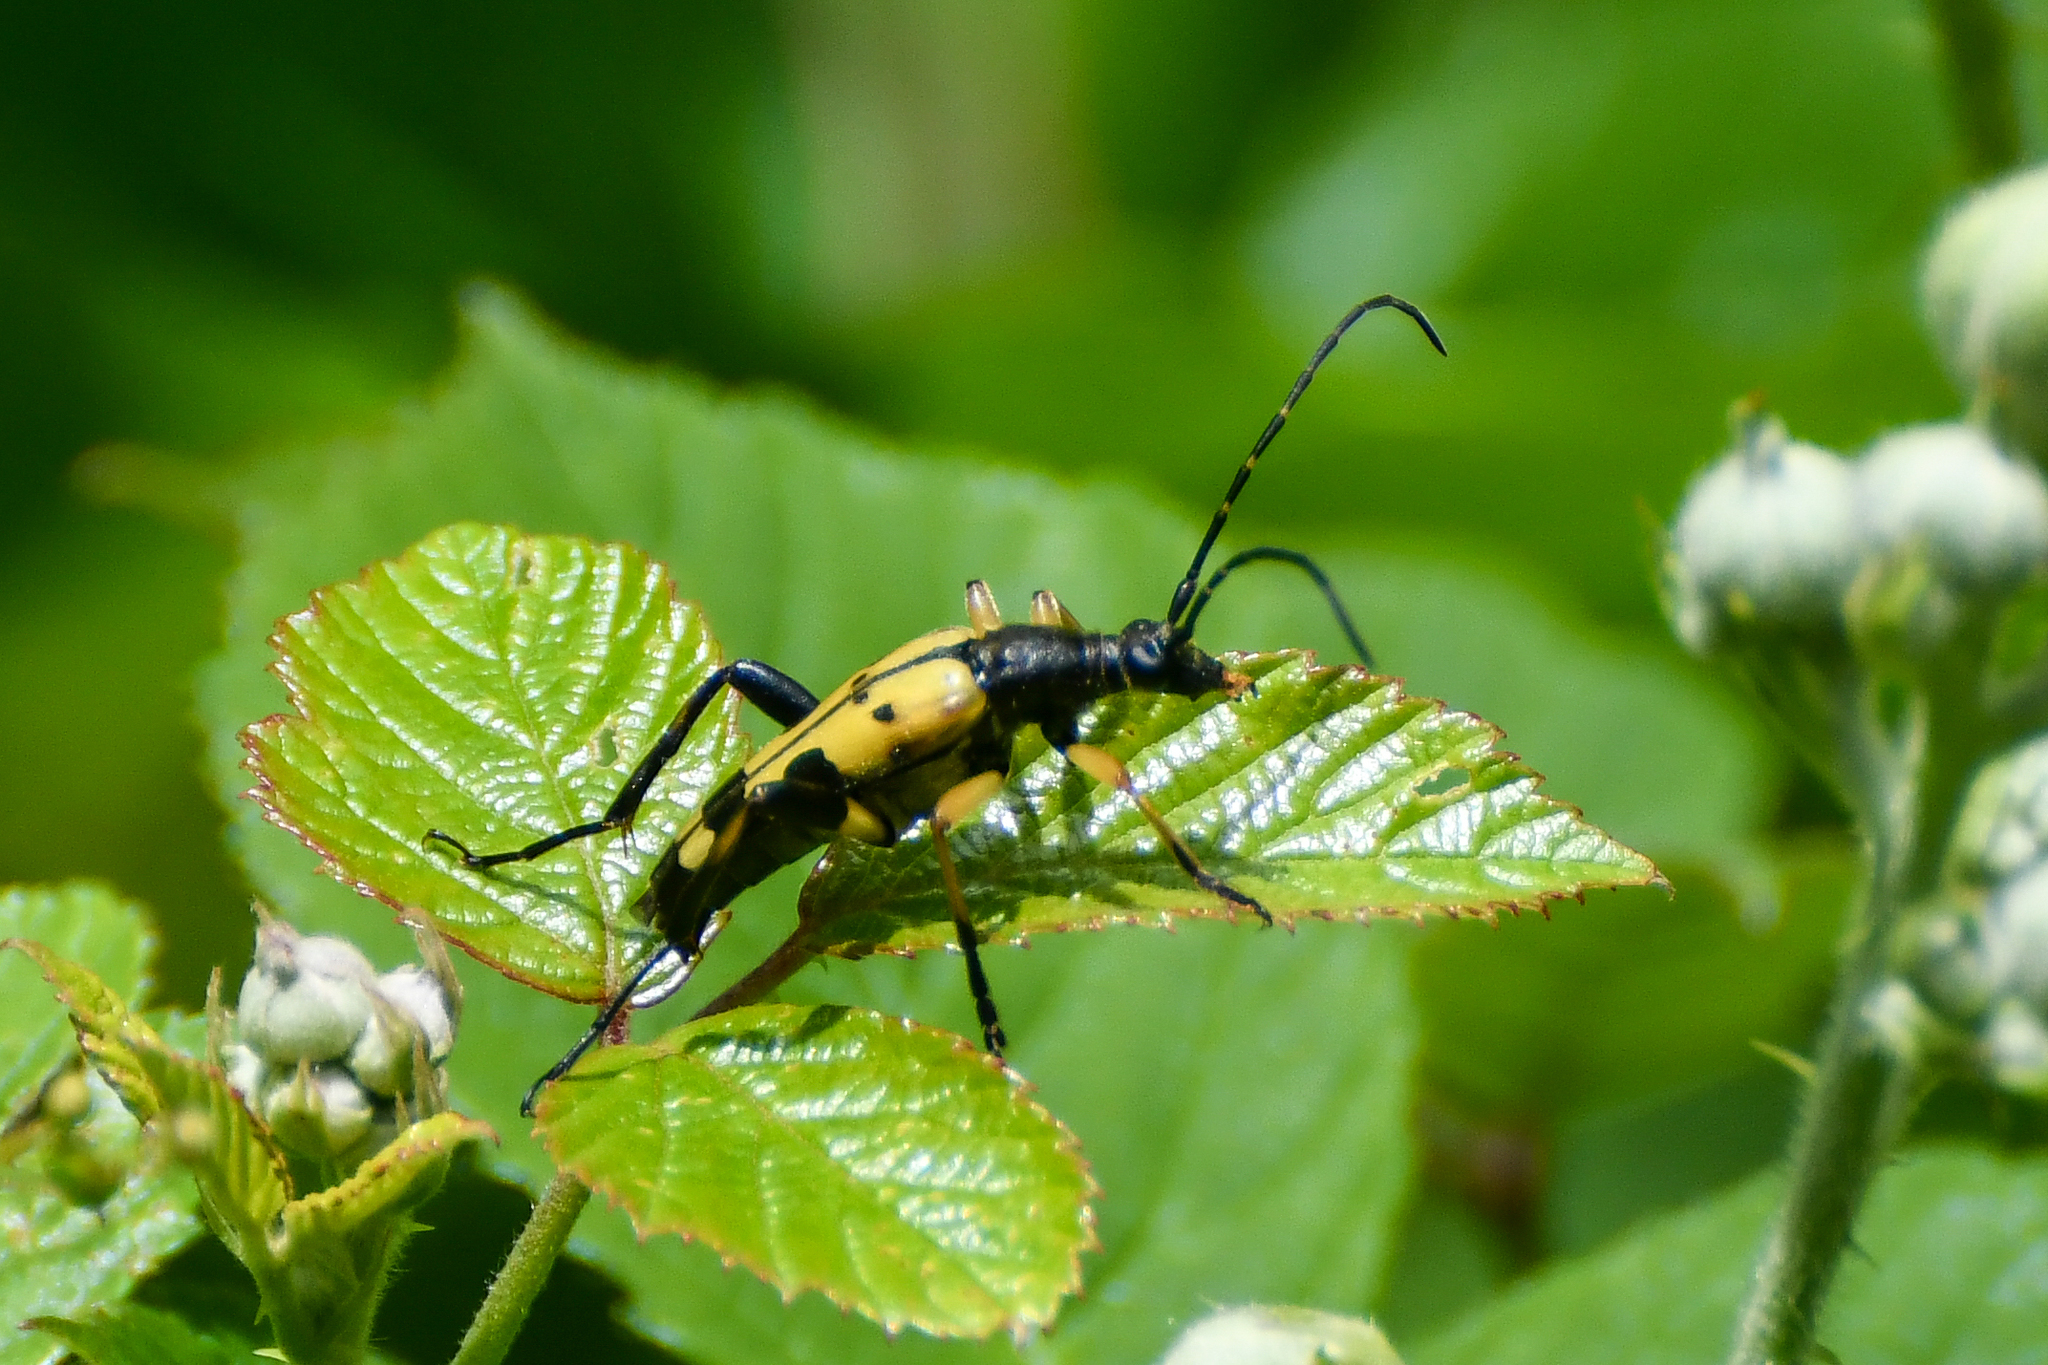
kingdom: Animalia
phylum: Arthropoda
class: Insecta
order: Coleoptera
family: Cerambycidae
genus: Rutpela
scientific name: Rutpela maculata
